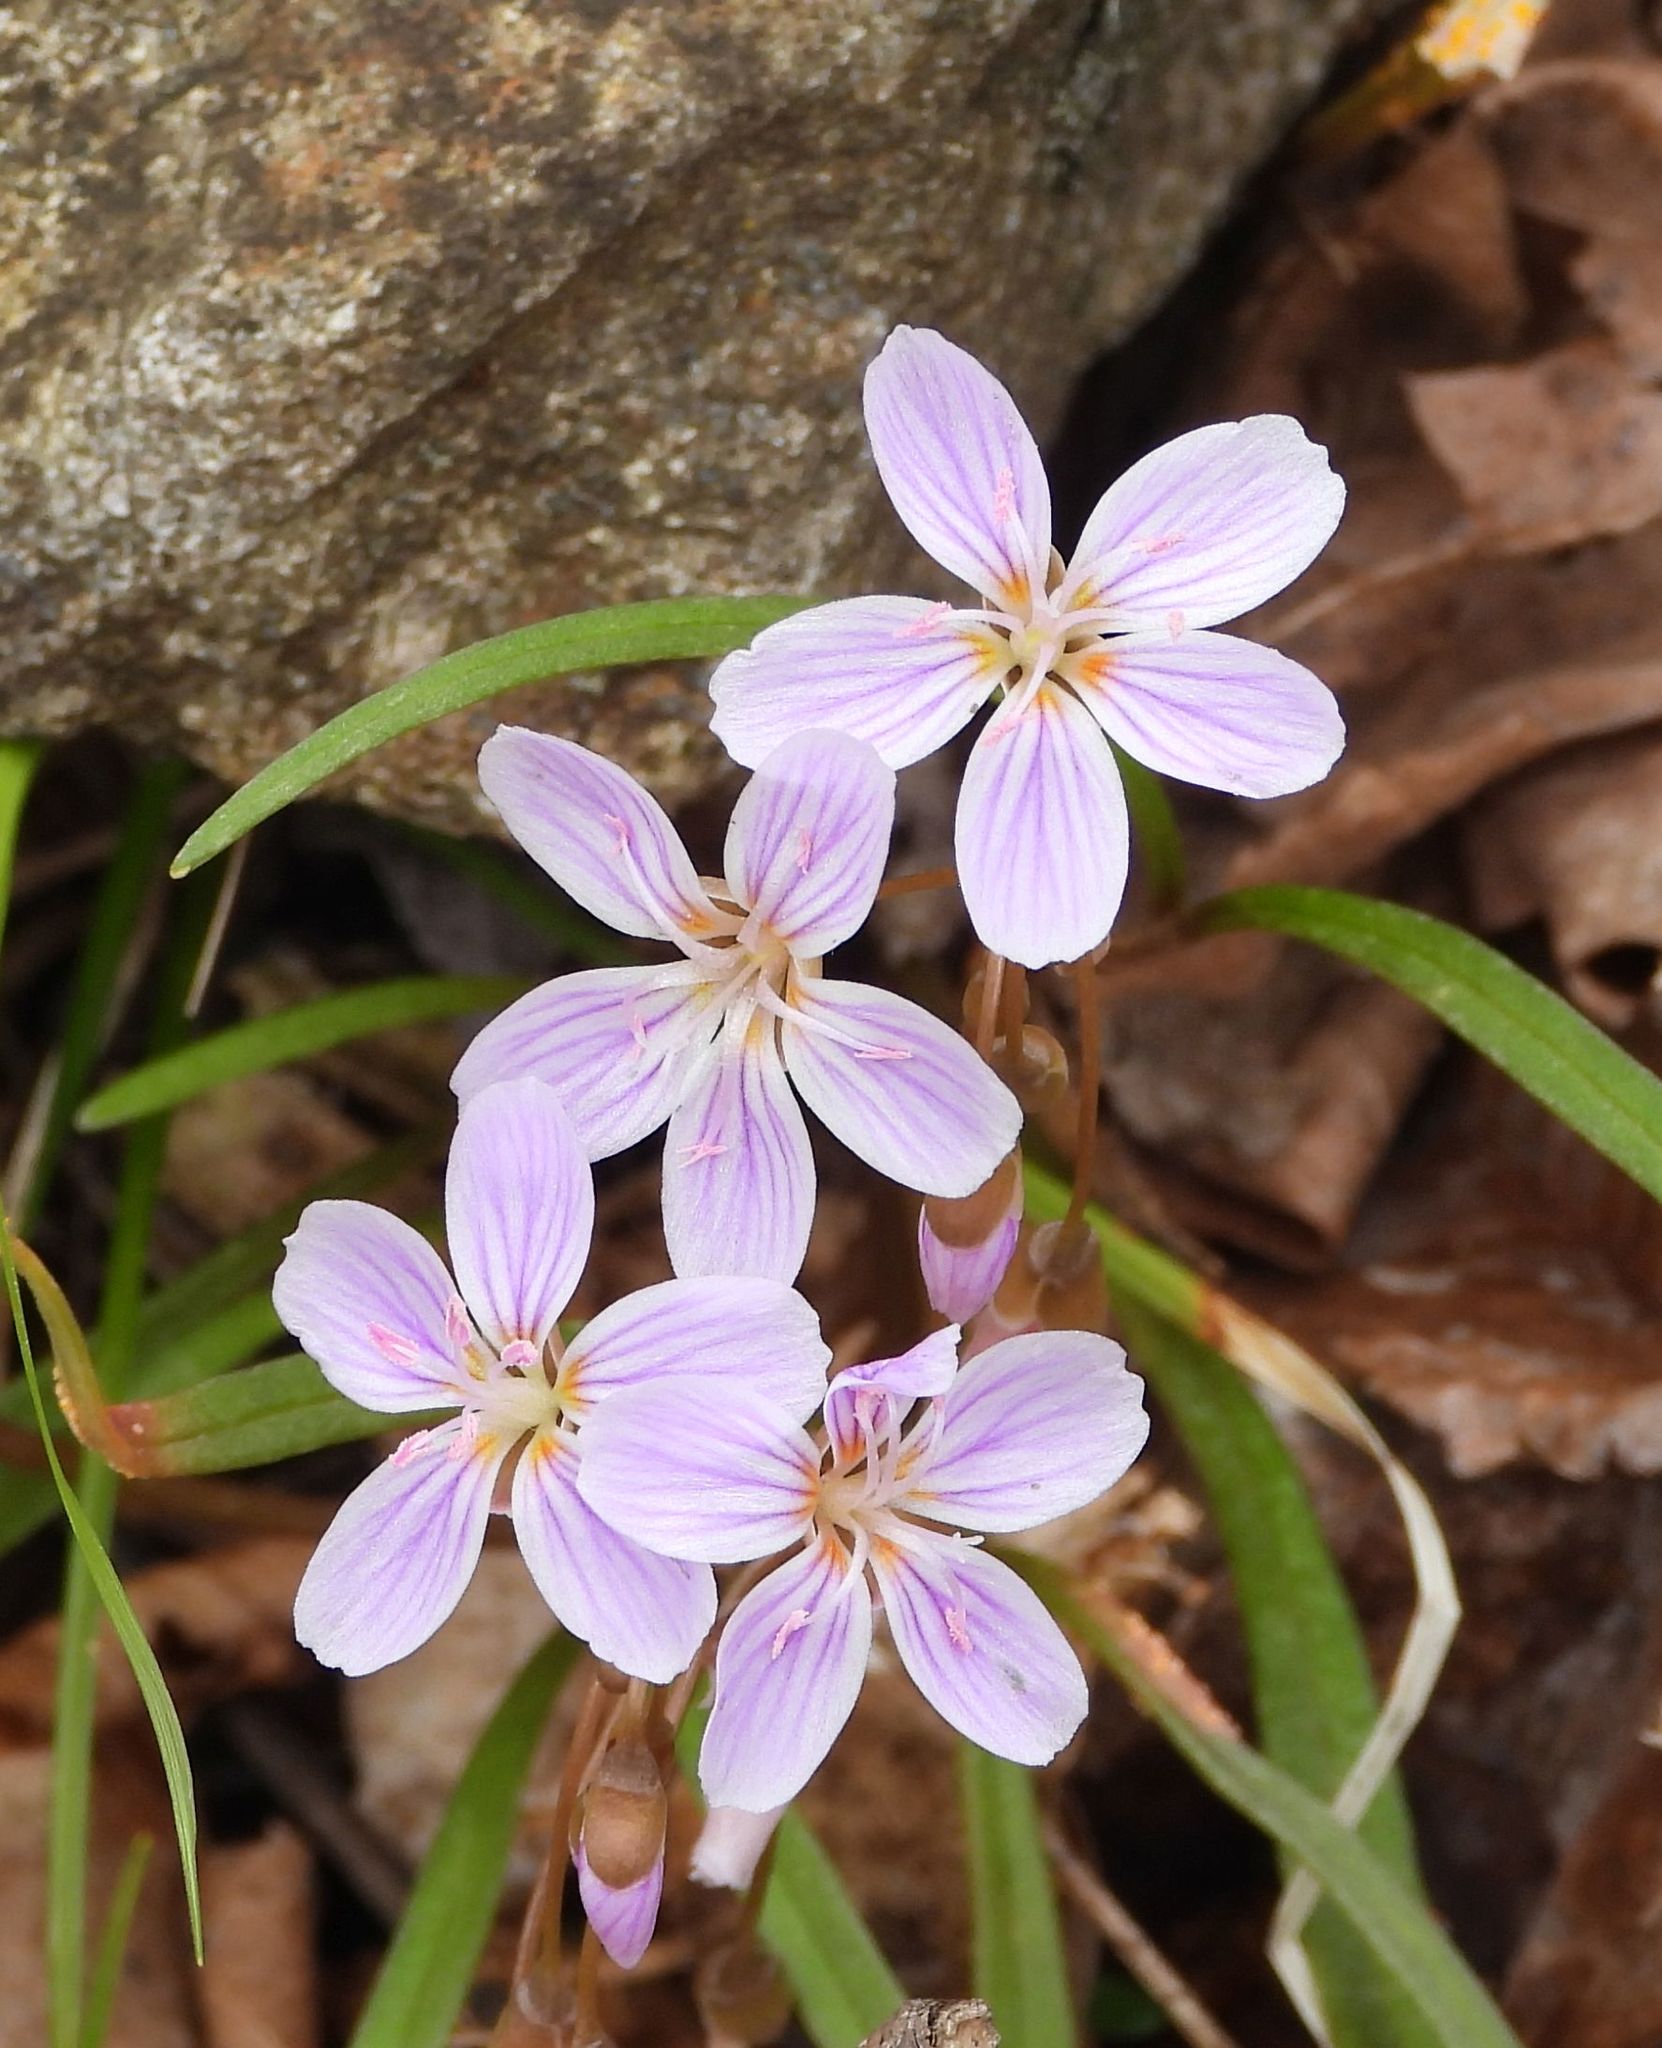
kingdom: Plantae
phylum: Tracheophyta
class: Magnoliopsida
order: Caryophyllales
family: Montiaceae
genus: Claytonia
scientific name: Claytonia virginica
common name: Virginia springbeauty
